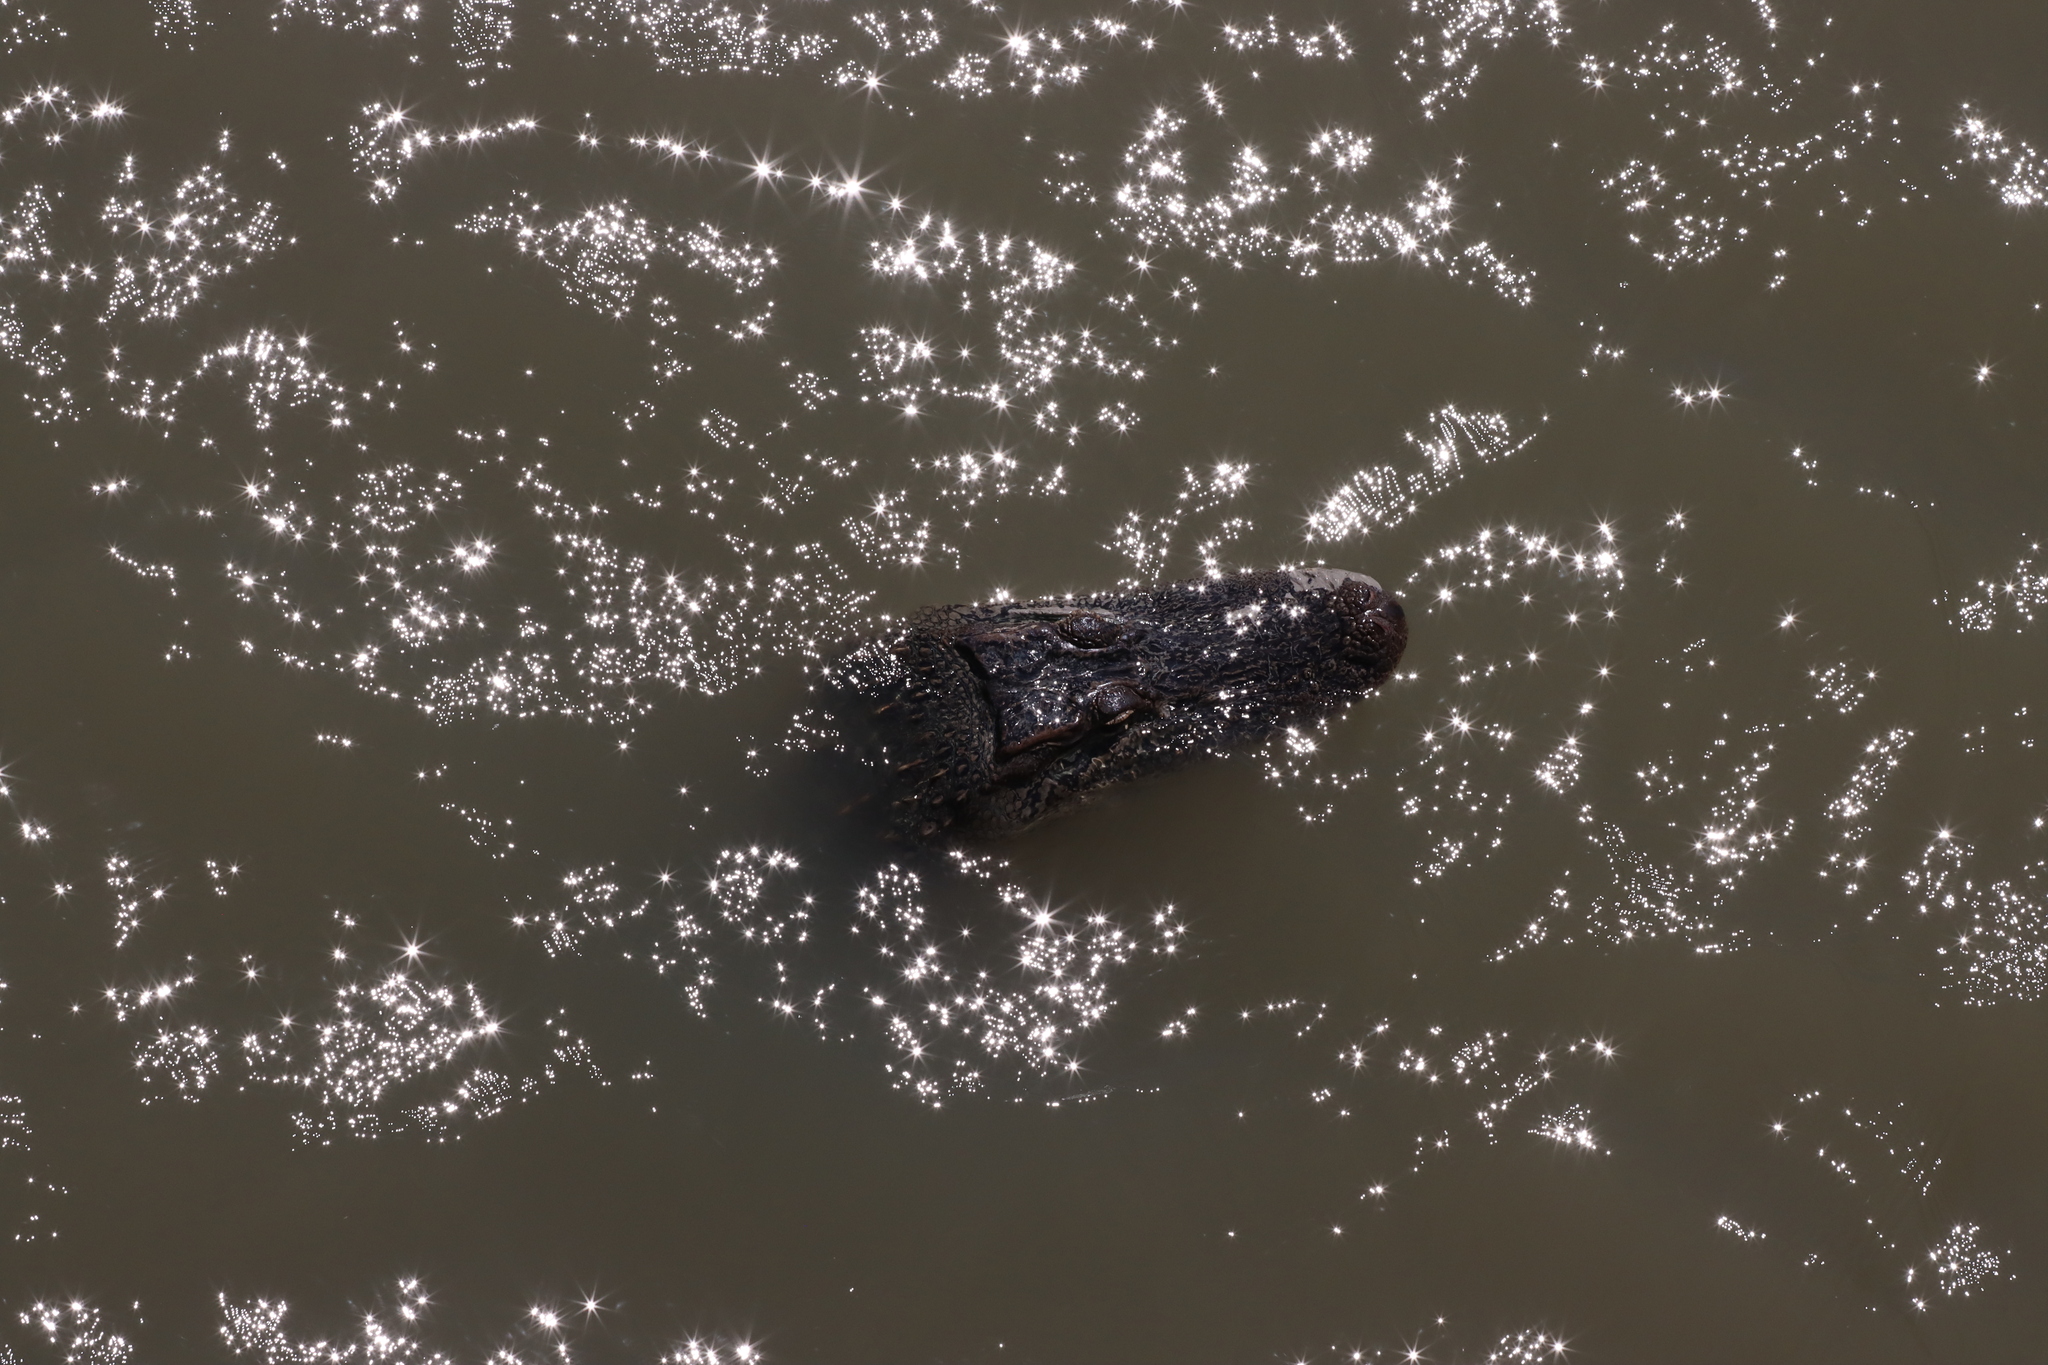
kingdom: Animalia
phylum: Chordata
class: Crocodylia
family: Alligatoridae
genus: Alligator
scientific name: Alligator mississippiensis
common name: American alligator
